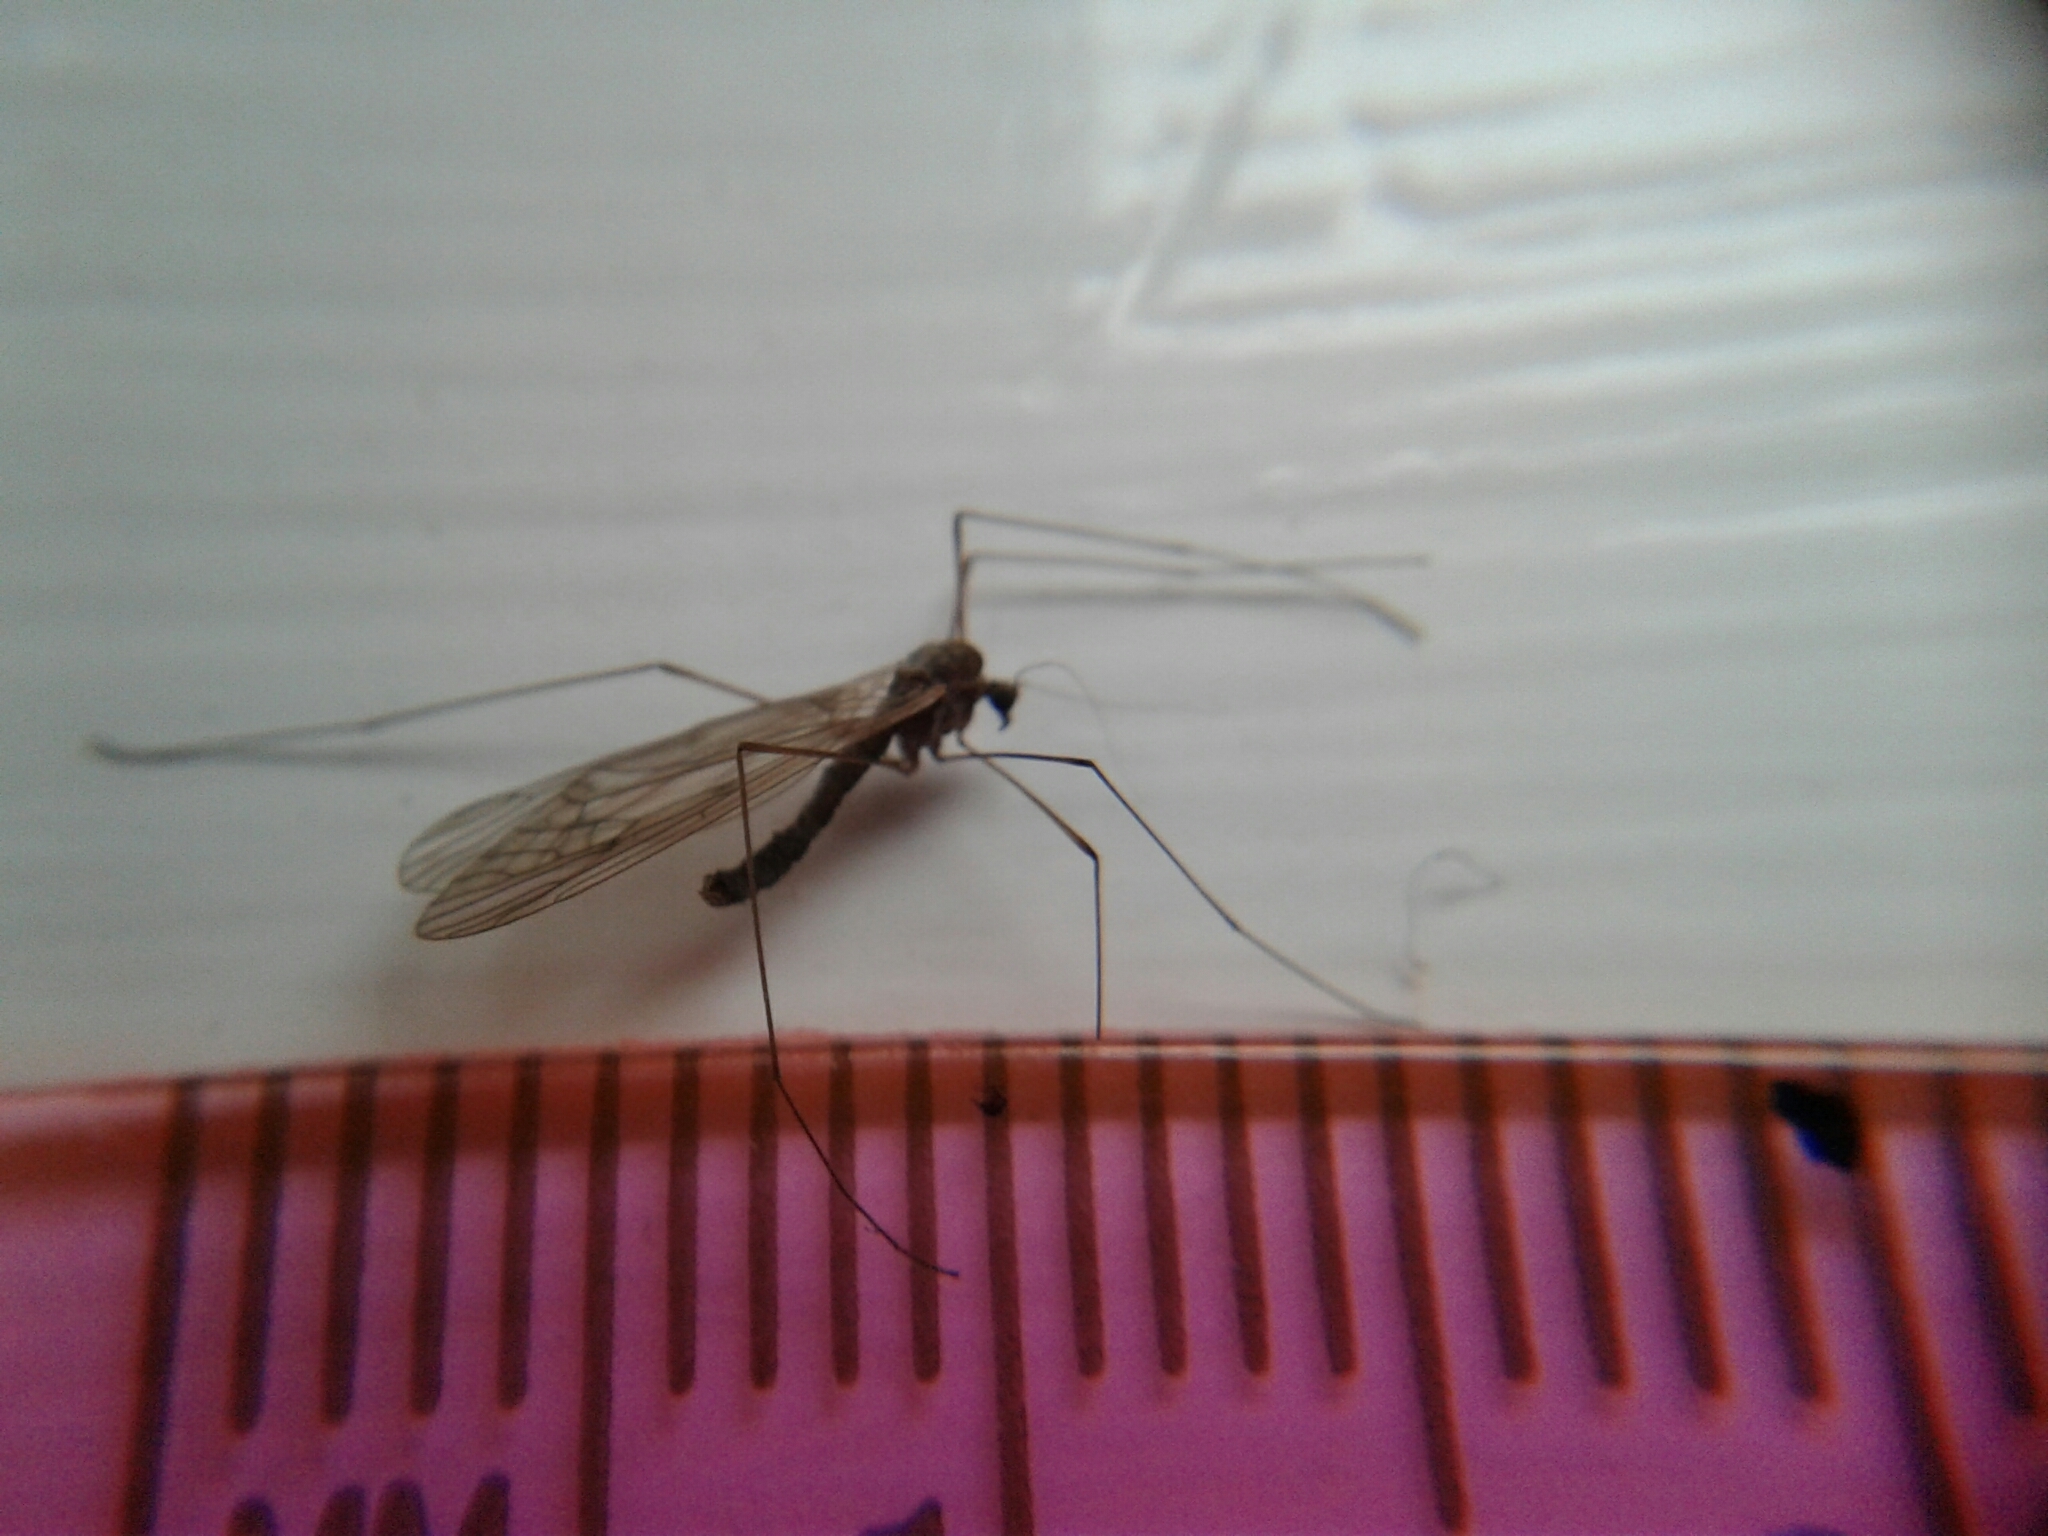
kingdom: Animalia
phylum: Arthropoda
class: Insecta
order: Diptera
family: Trichoceridae
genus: Trichocera
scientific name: Trichocera bimacula
